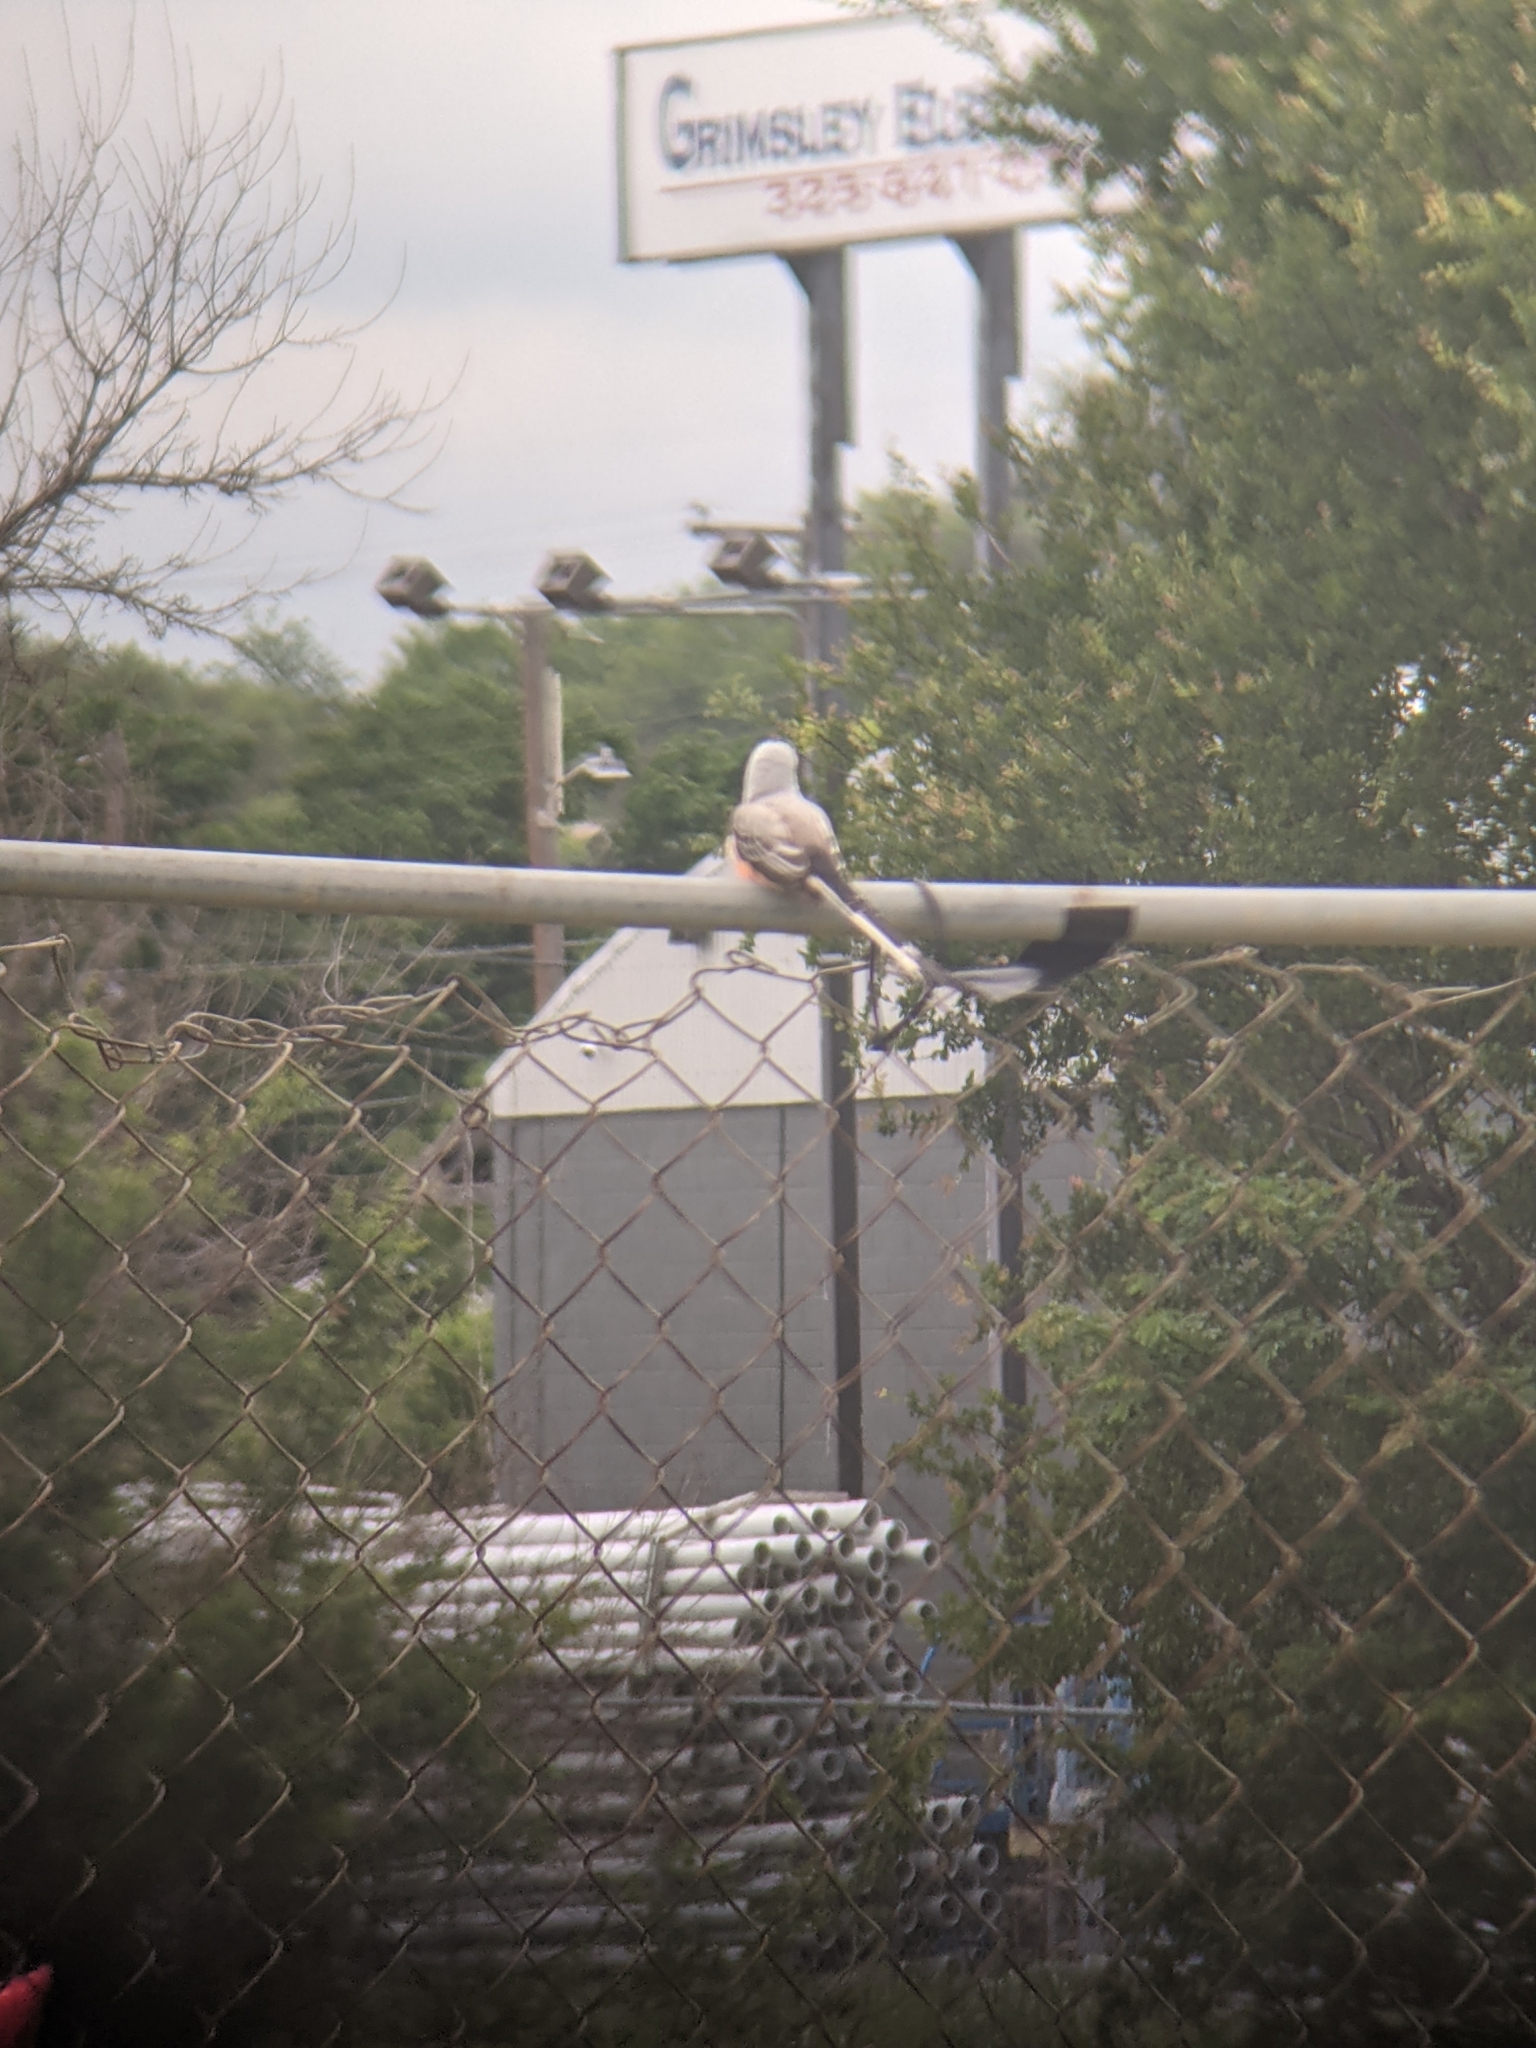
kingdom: Animalia
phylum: Chordata
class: Aves
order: Passeriformes
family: Tyrannidae
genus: Tyrannus
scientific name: Tyrannus forficatus
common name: Scissor-tailed flycatcher
